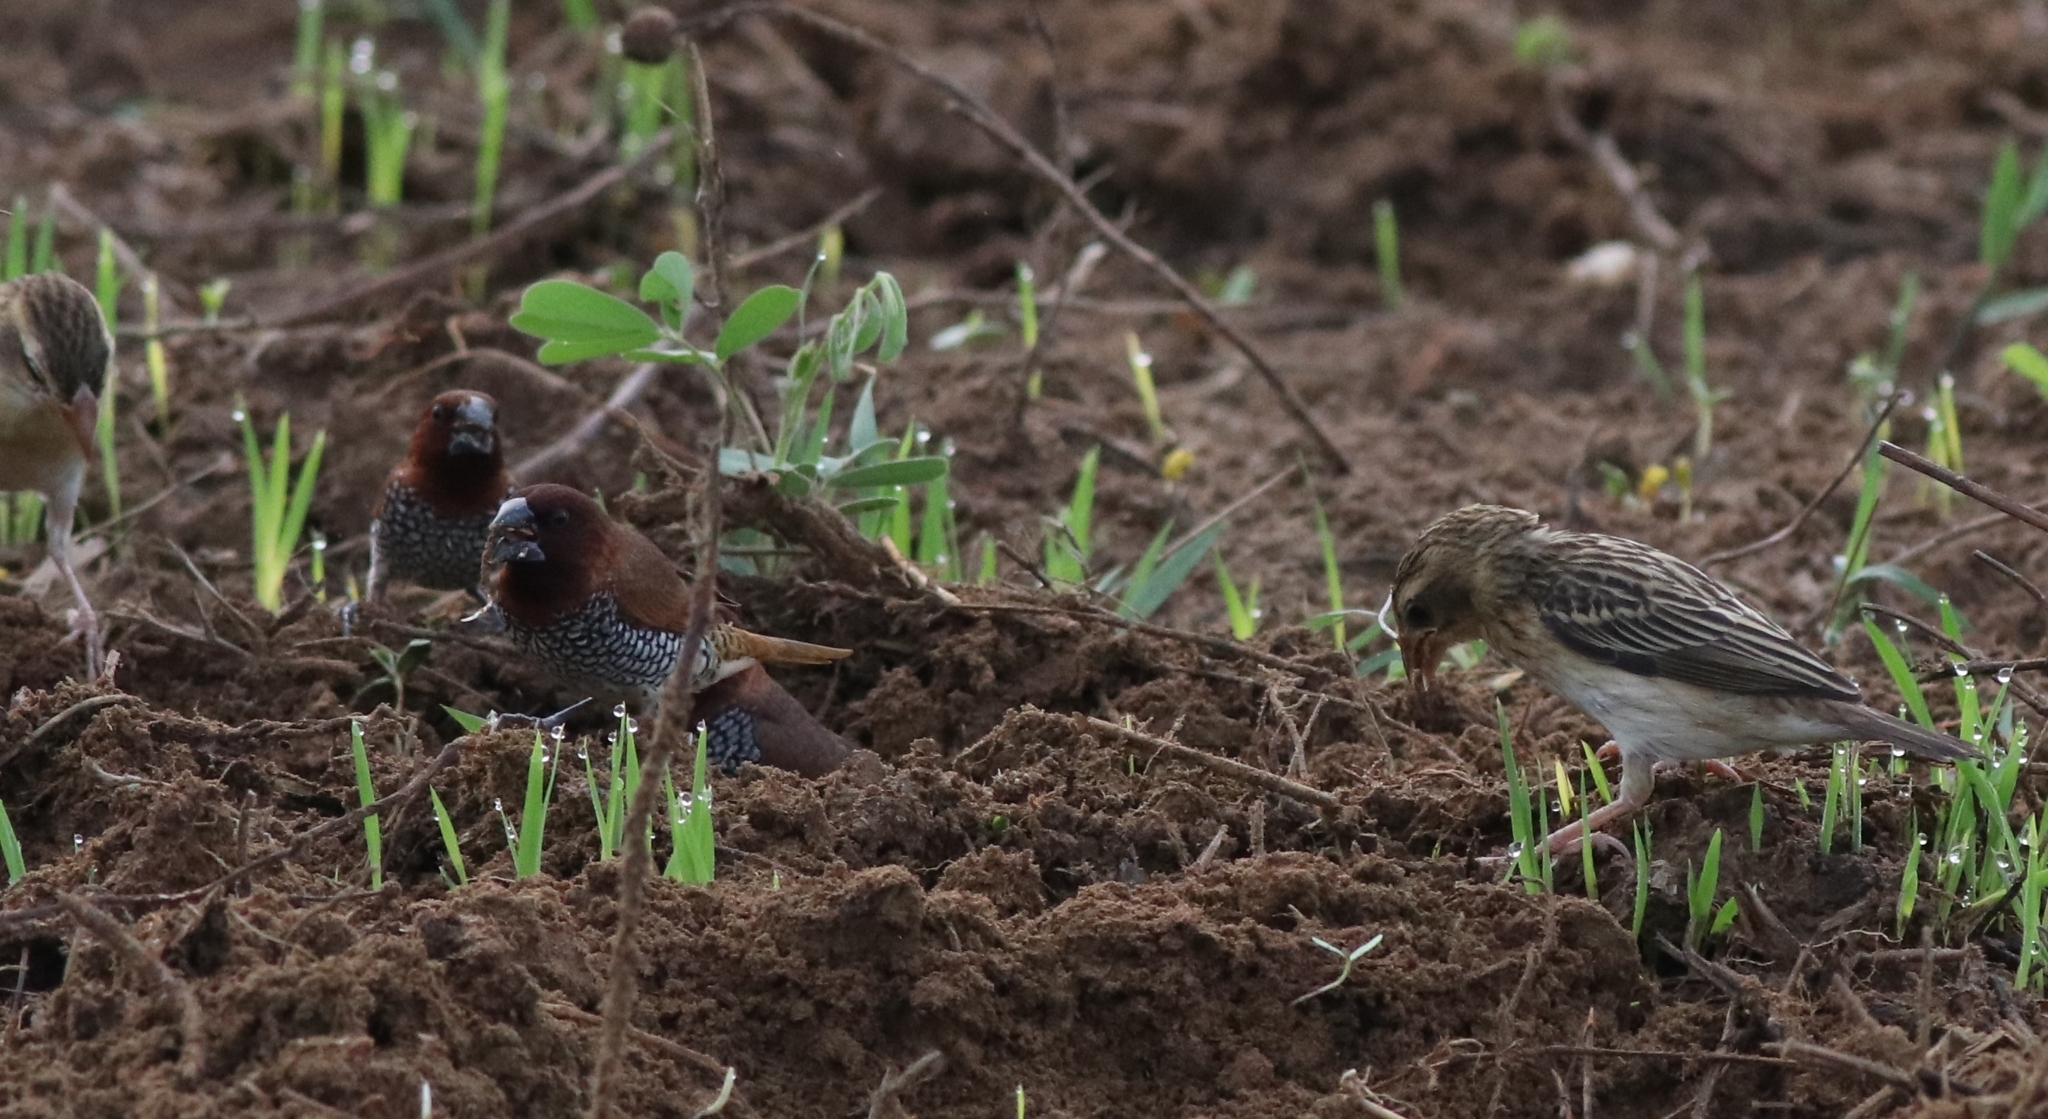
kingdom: Animalia
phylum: Chordata
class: Aves
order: Passeriformes
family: Estrildidae
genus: Lonchura
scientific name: Lonchura punctulata
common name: Scaly-breasted munia
